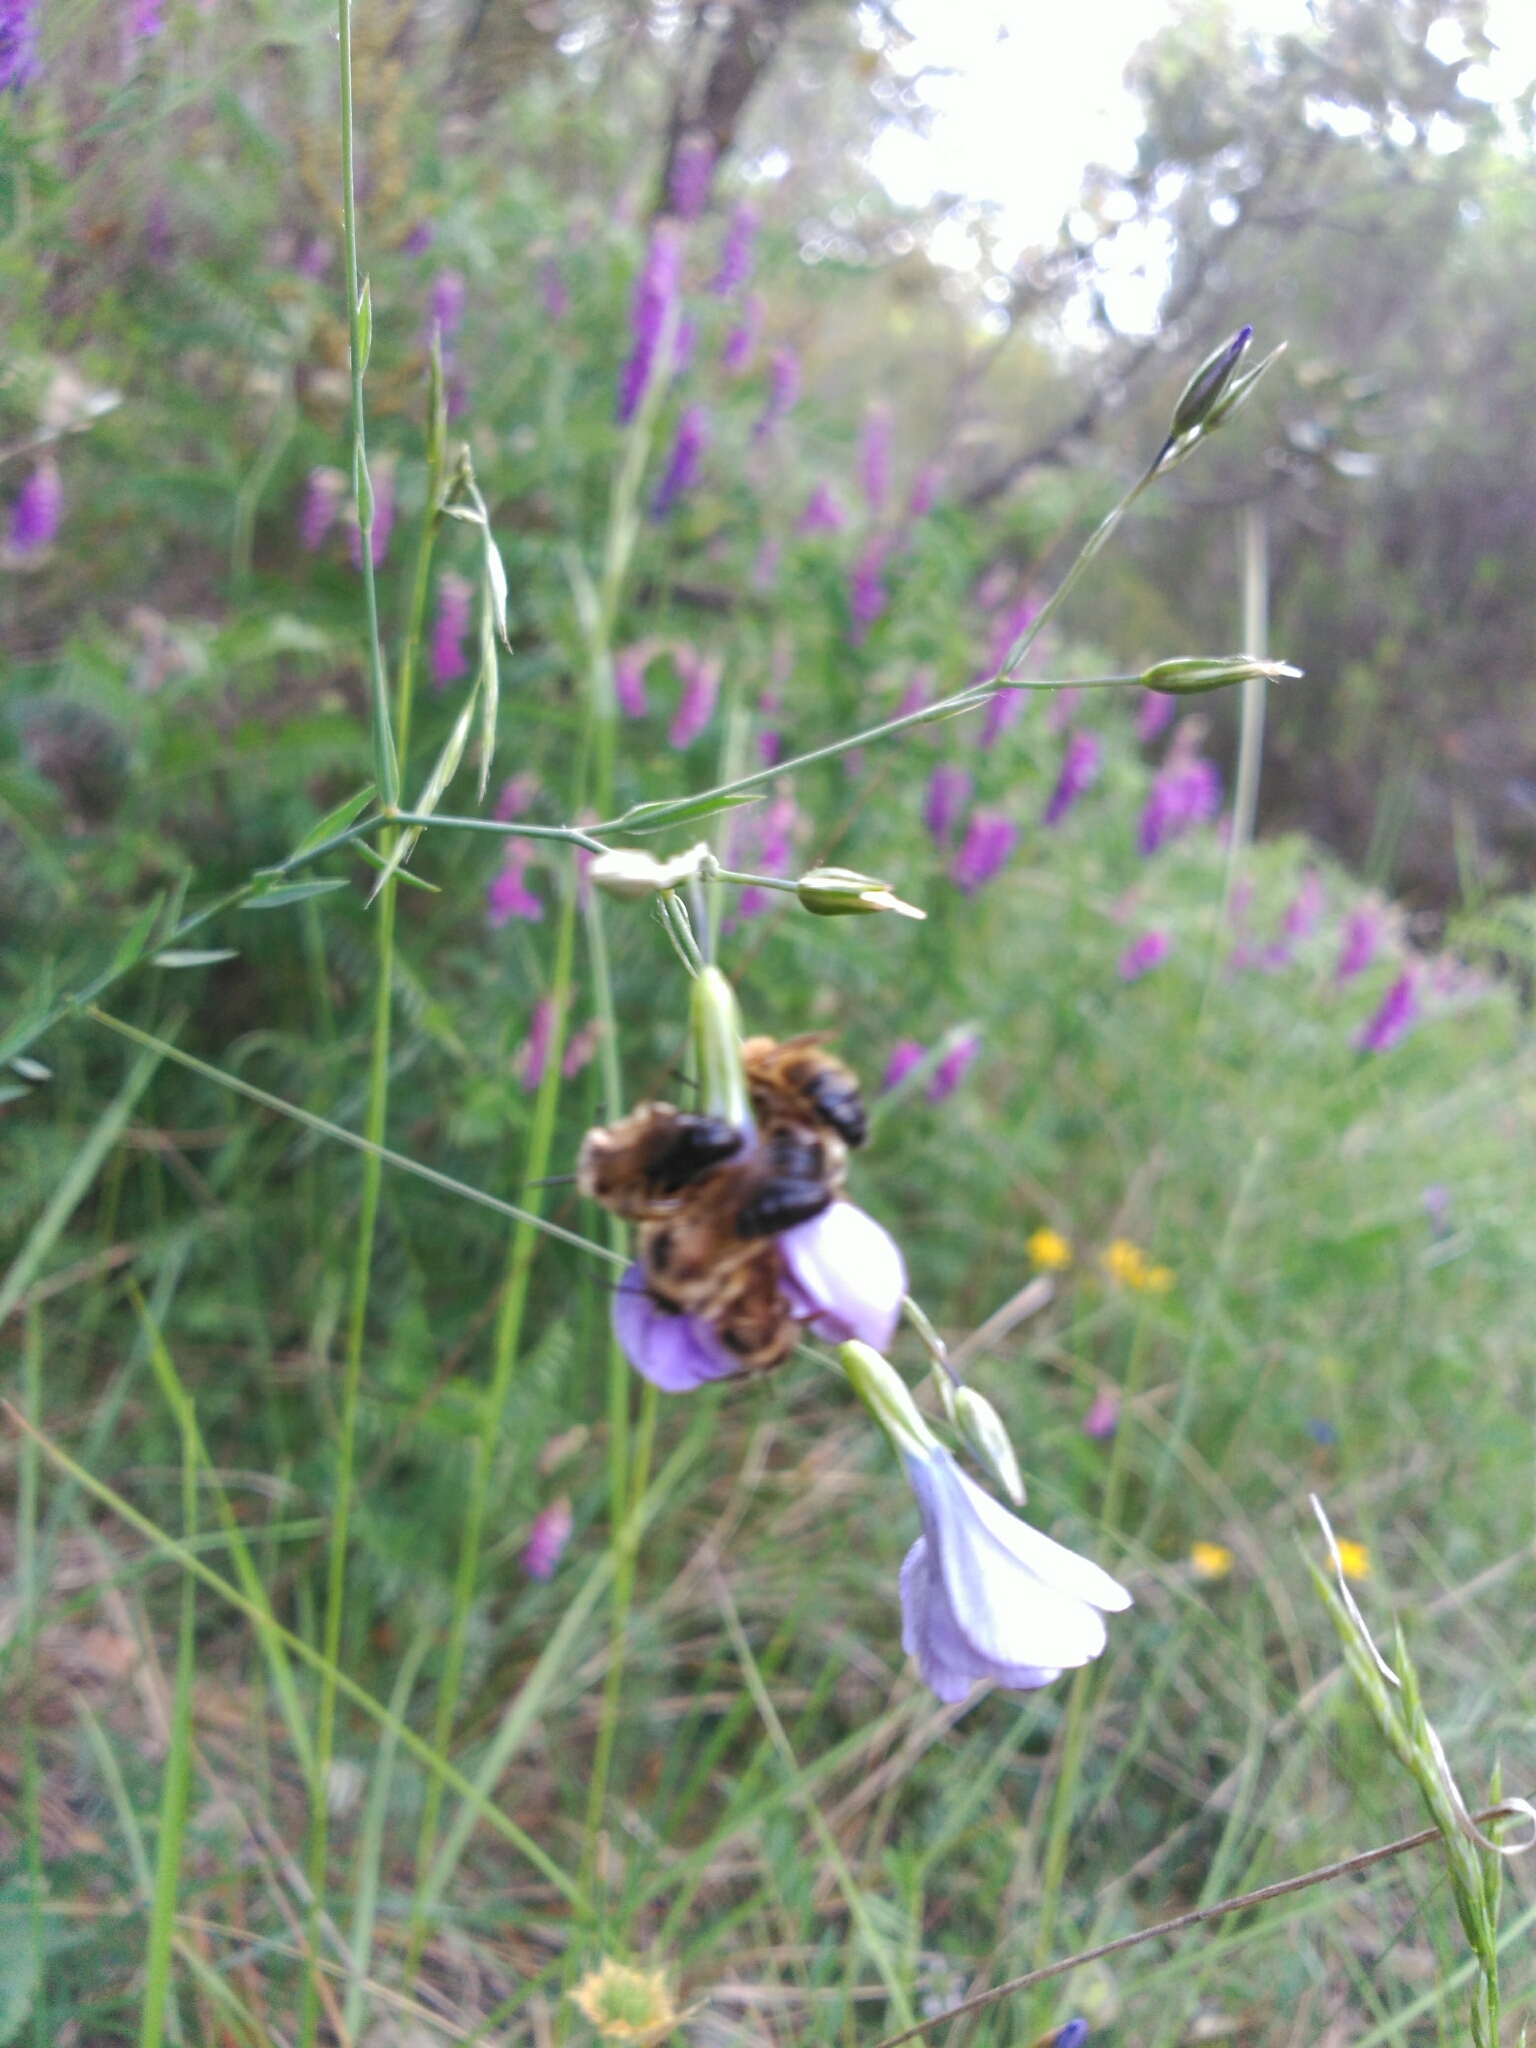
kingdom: Animalia
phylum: Arthropoda
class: Insecta
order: Hymenoptera
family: Apidae
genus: Apis
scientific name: Apis mellifera
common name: Honey bee
